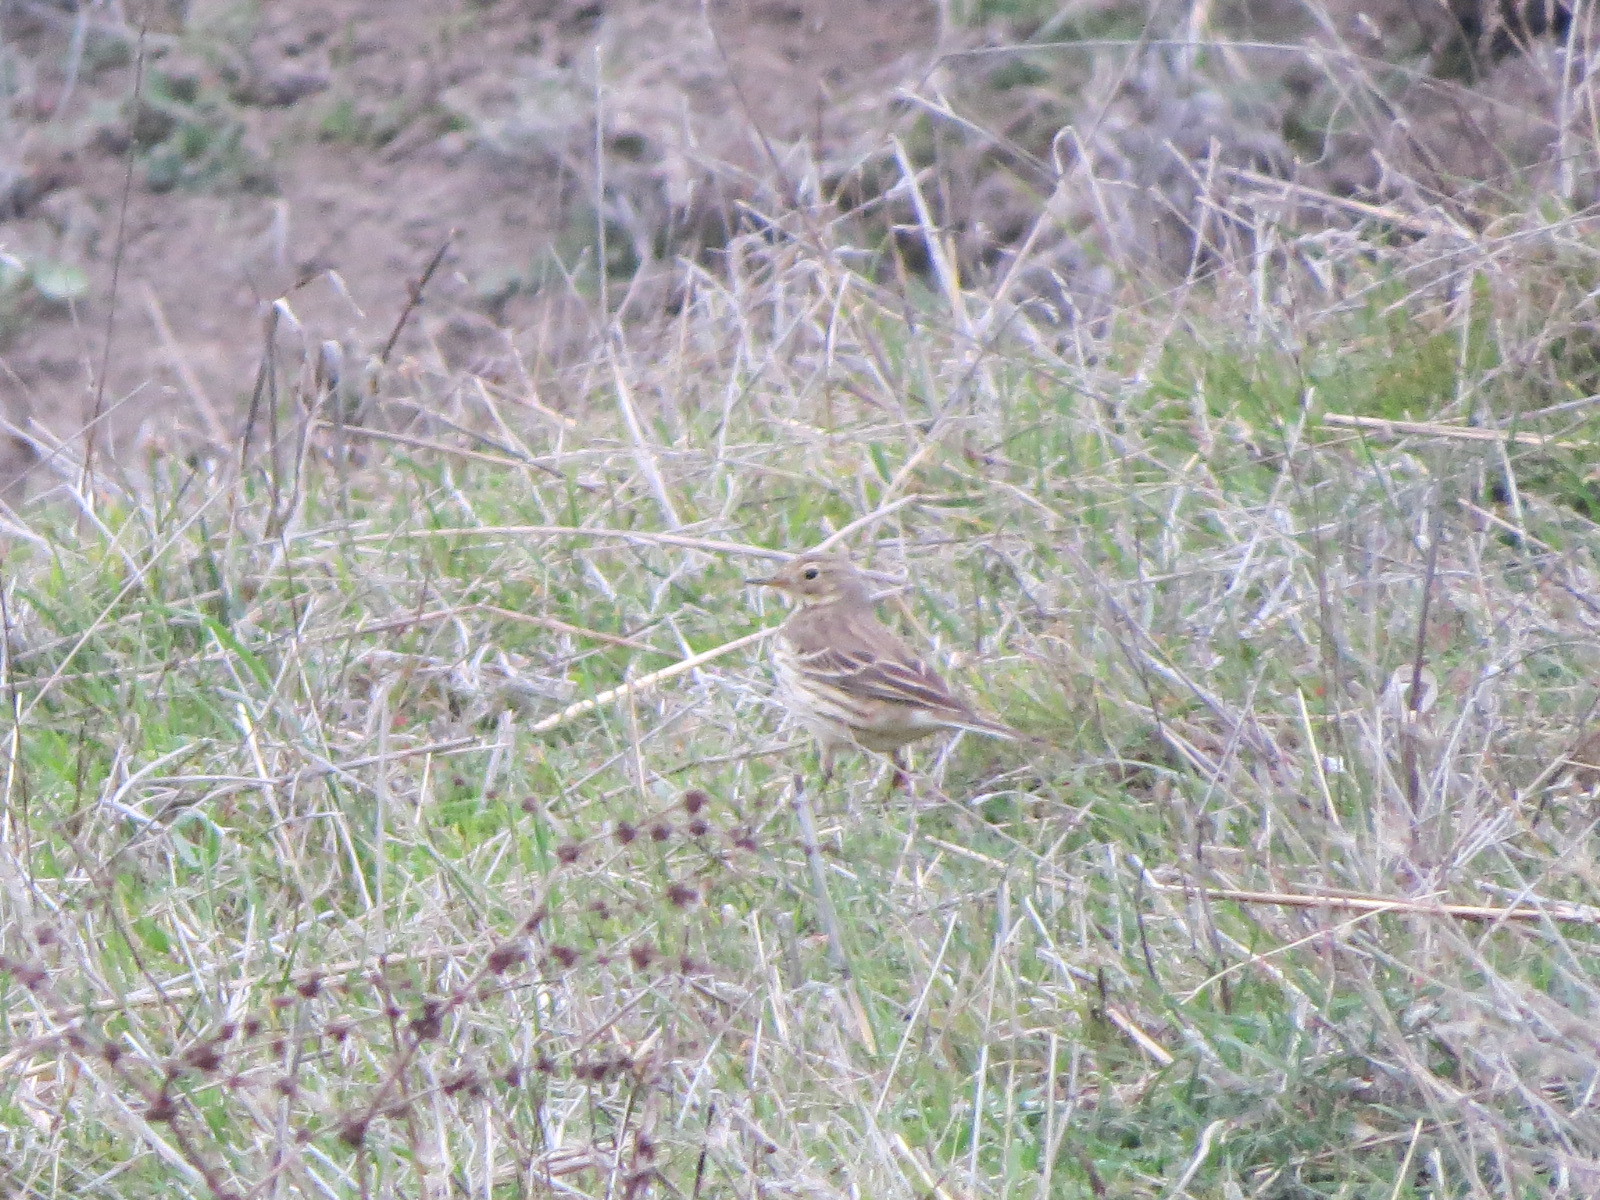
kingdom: Animalia
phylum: Chordata
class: Aves
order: Passeriformes
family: Motacillidae
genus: Anthus
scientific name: Anthus rubescens
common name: Buff-bellied pipit
